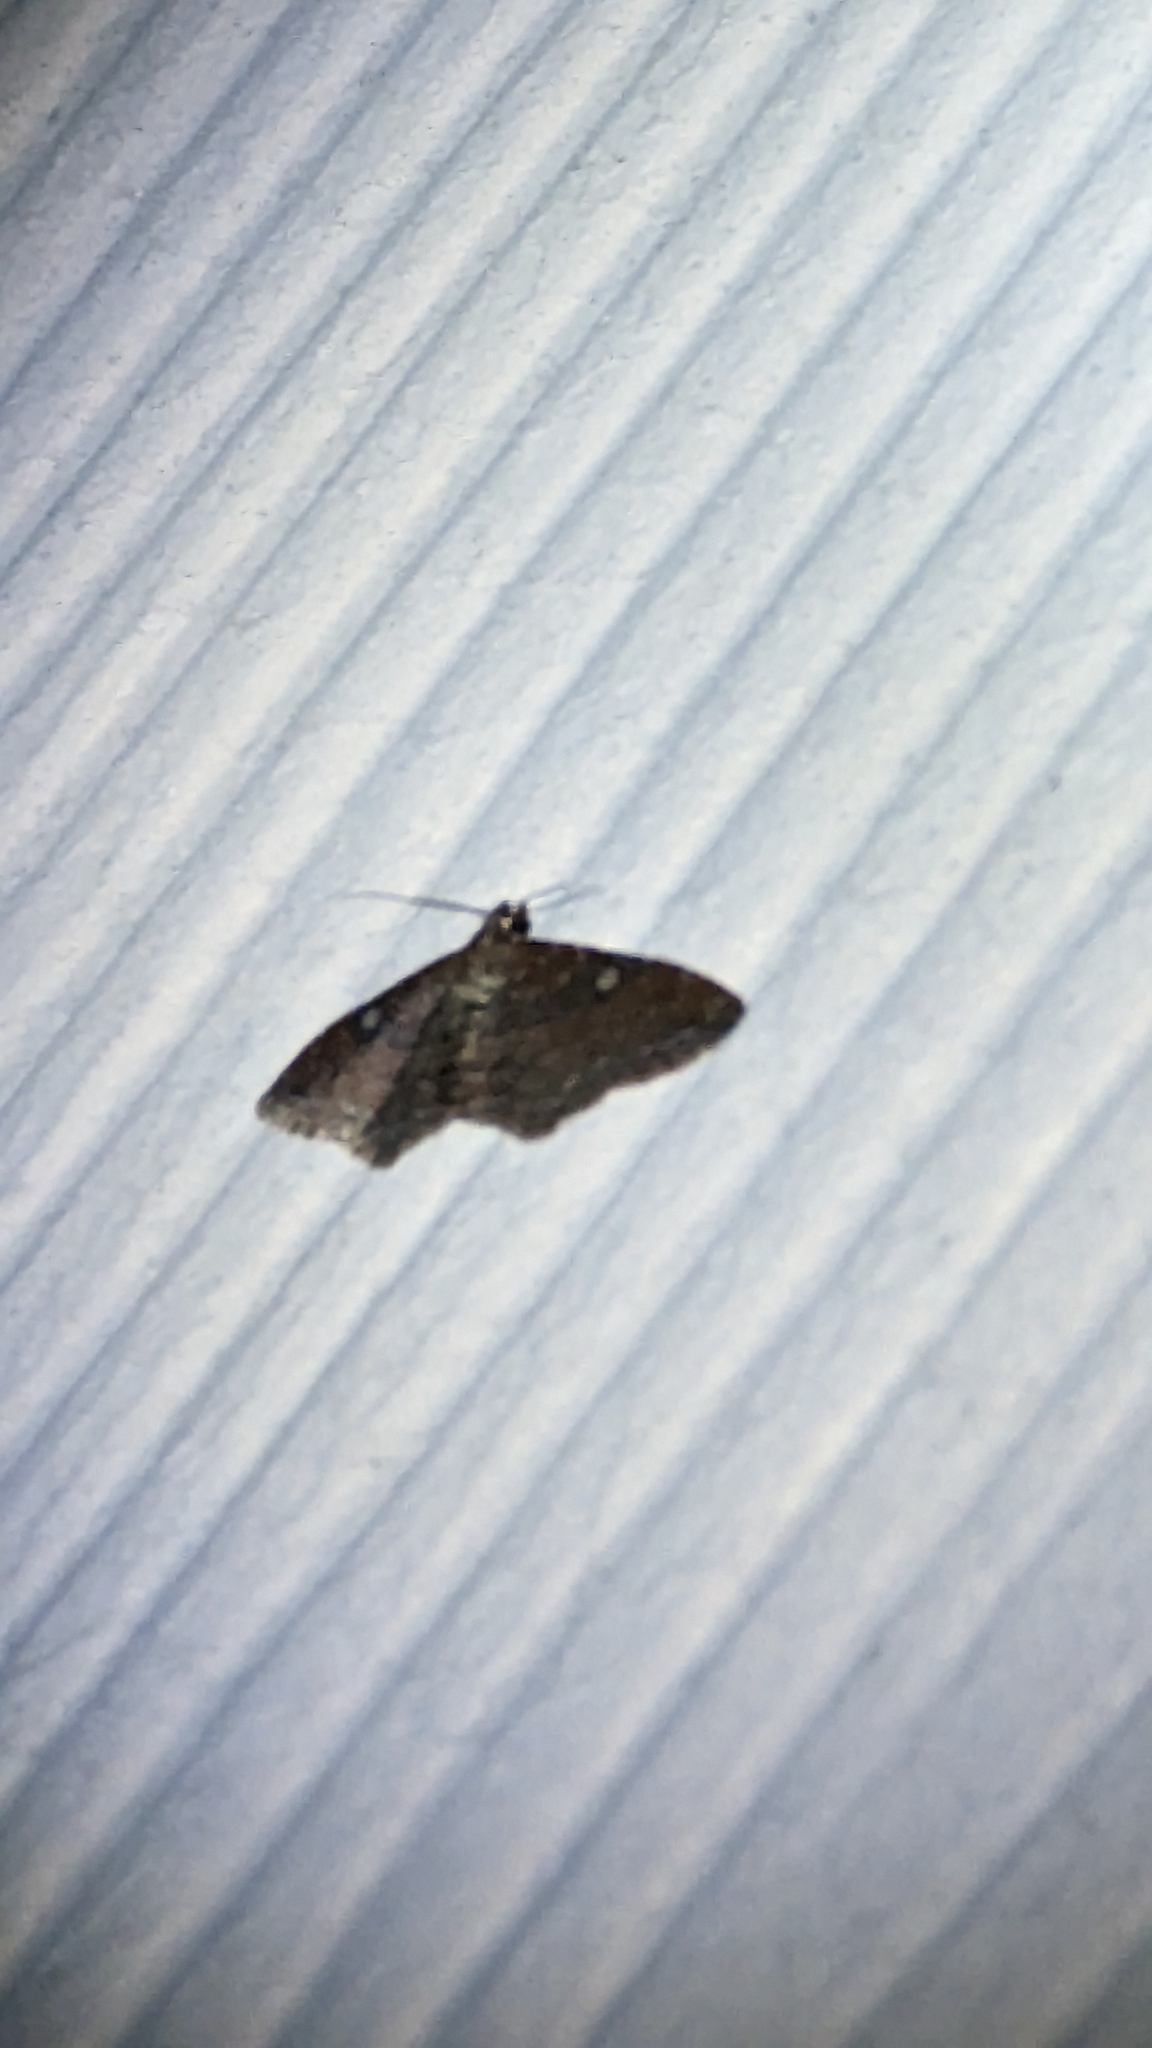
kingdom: Animalia
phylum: Arthropoda
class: Insecta
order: Lepidoptera
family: Geometridae
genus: Orthonama
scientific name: Orthonama obstipata
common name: The gem
